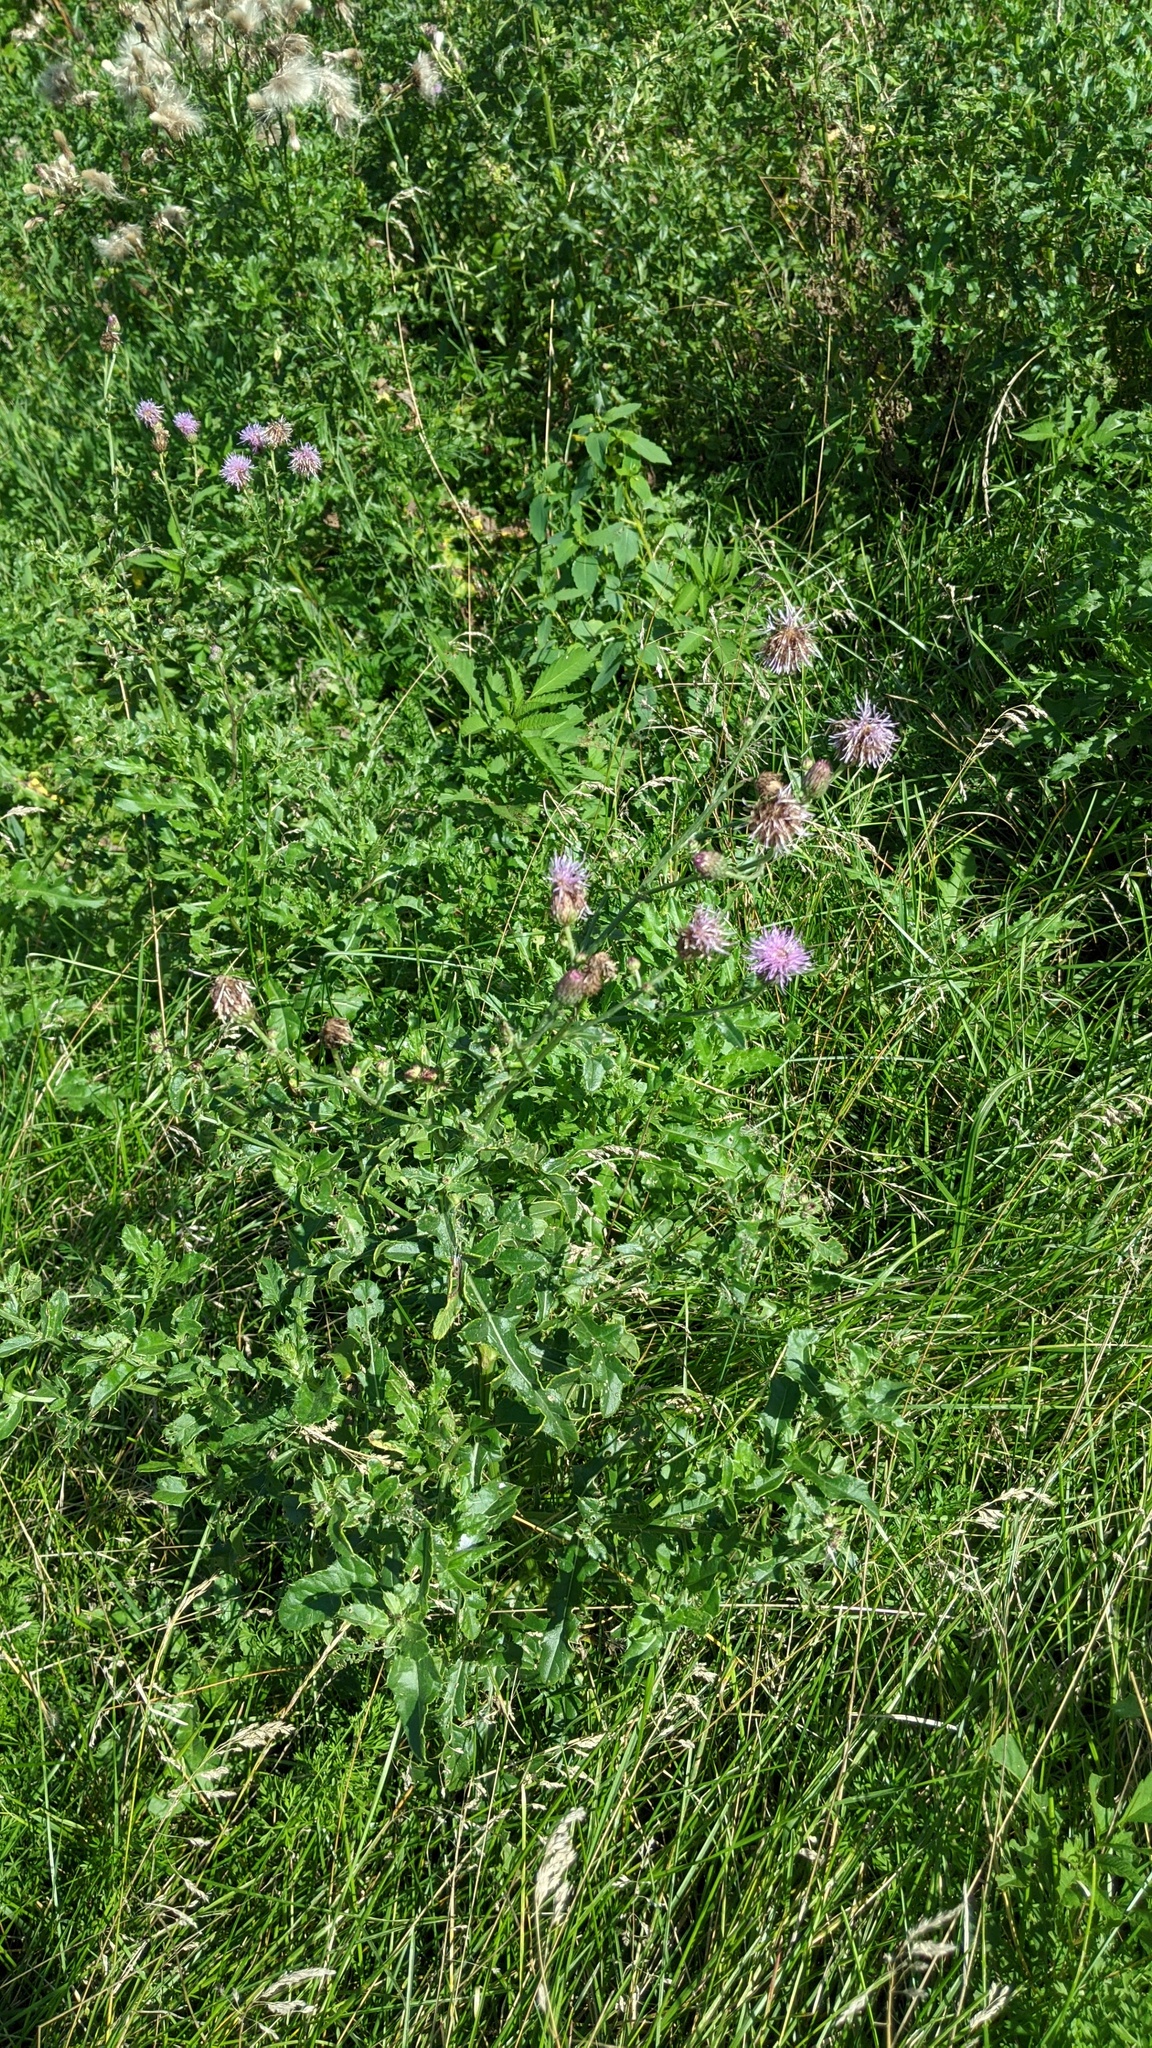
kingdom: Plantae
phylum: Tracheophyta
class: Magnoliopsida
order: Asterales
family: Asteraceae
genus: Cirsium
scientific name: Cirsium arvense
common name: Creeping thistle
